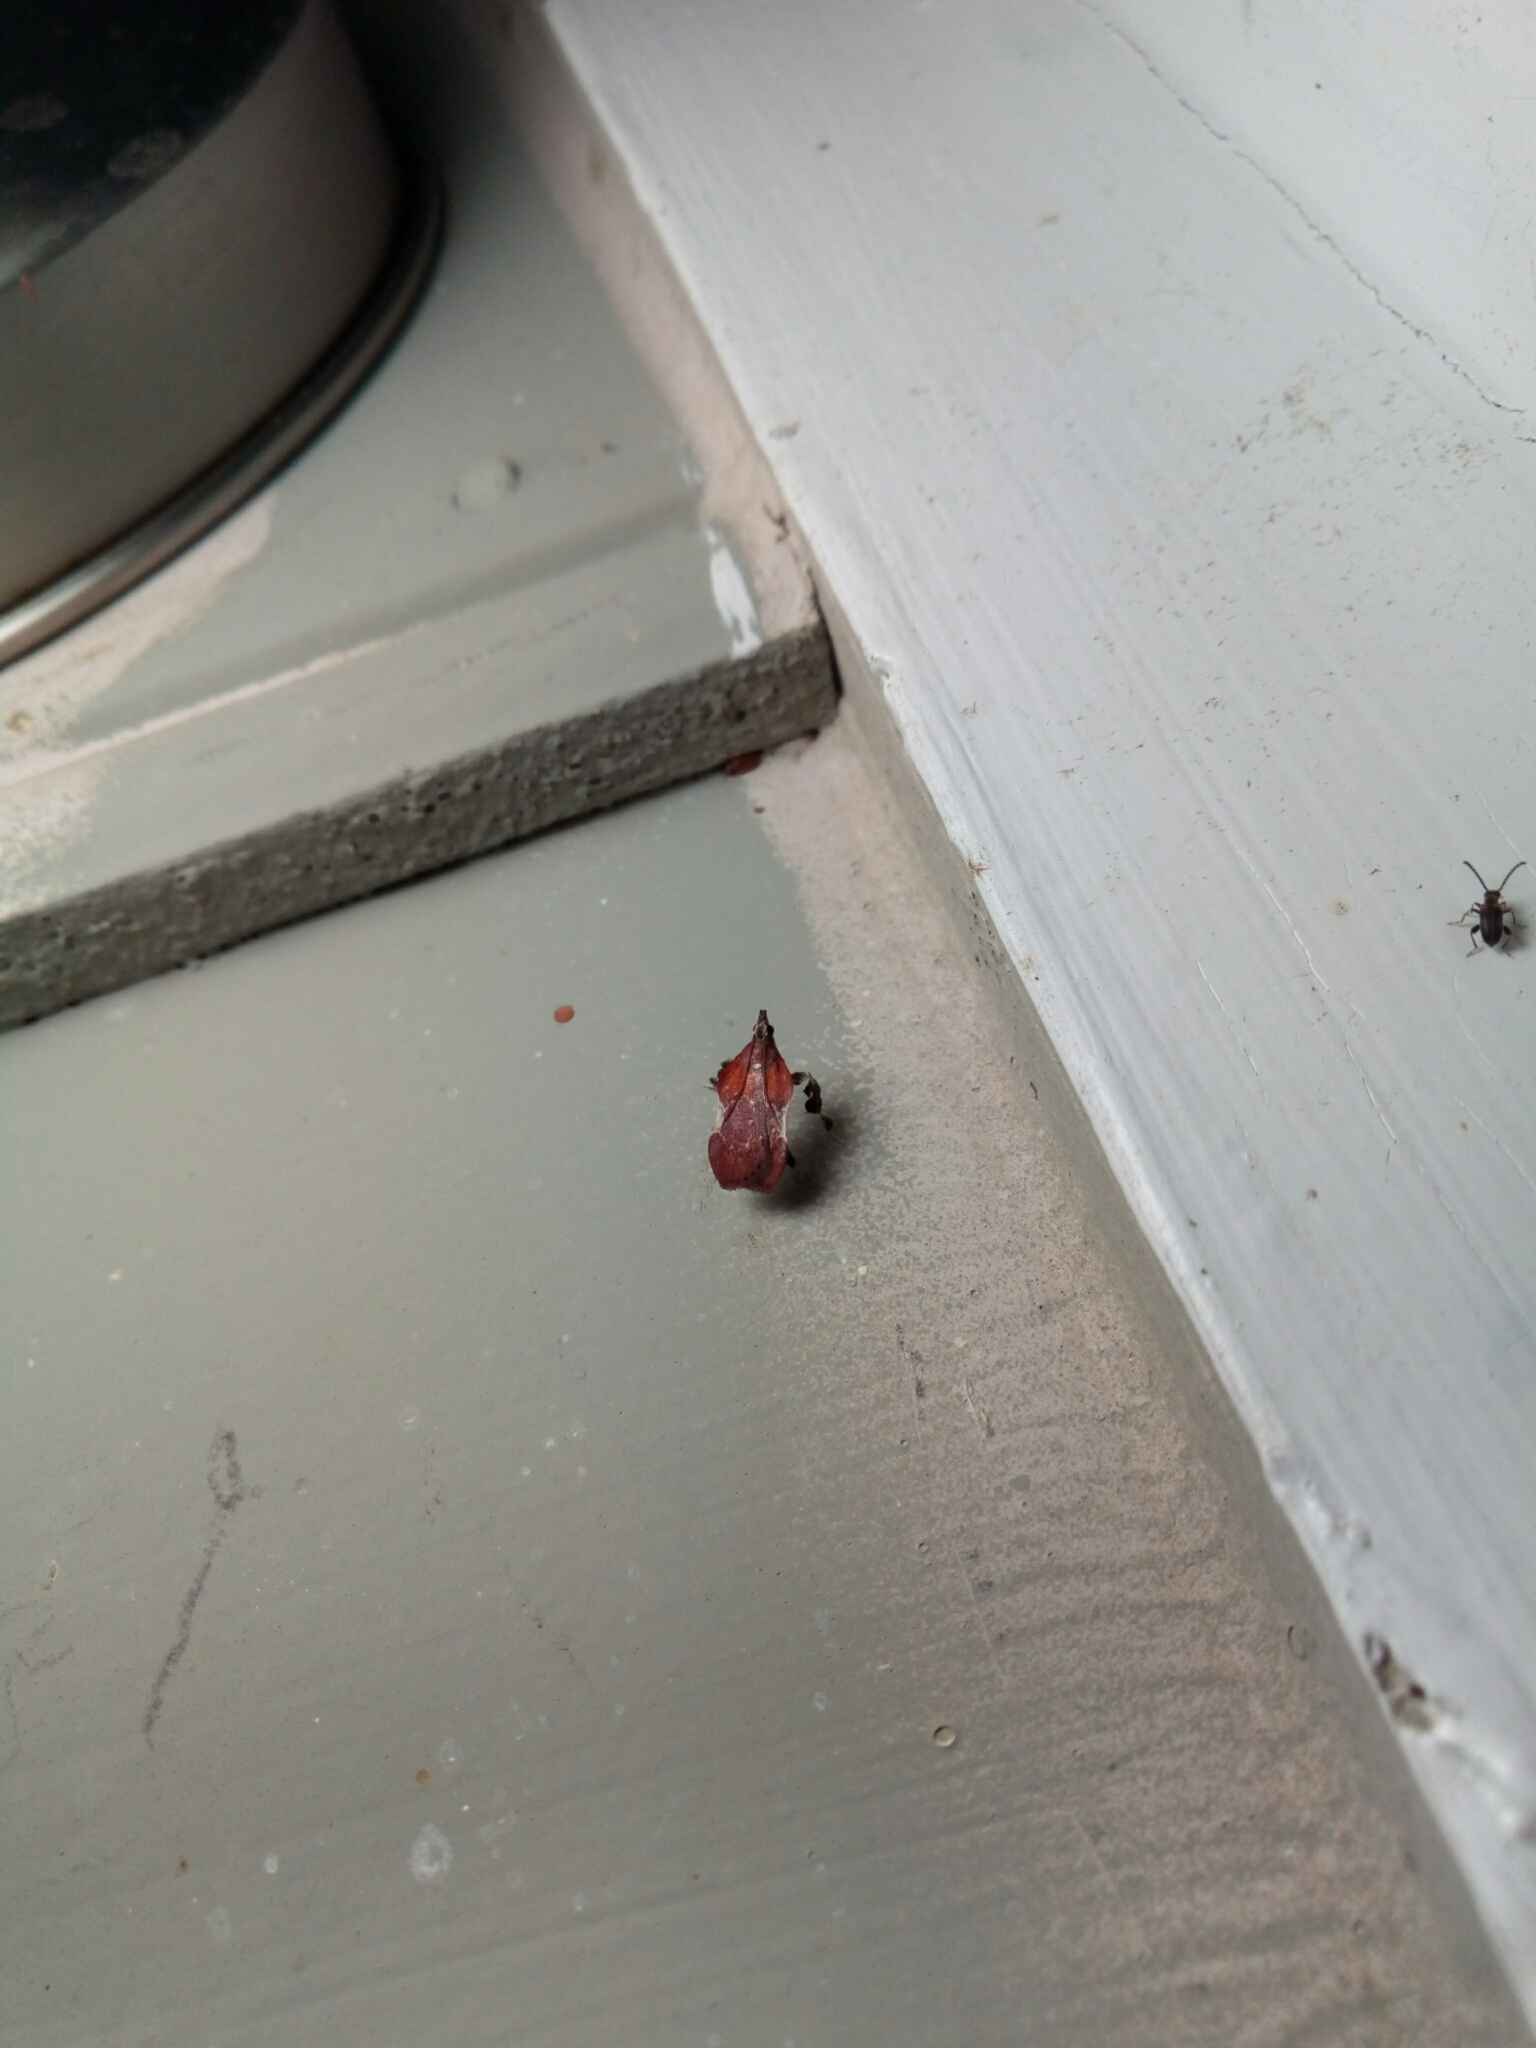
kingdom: Animalia
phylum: Arthropoda
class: Insecta
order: Lepidoptera
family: Pyralidae
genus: Galasa
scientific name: Galasa nigrinodis
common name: Boxwood leaftier moth
